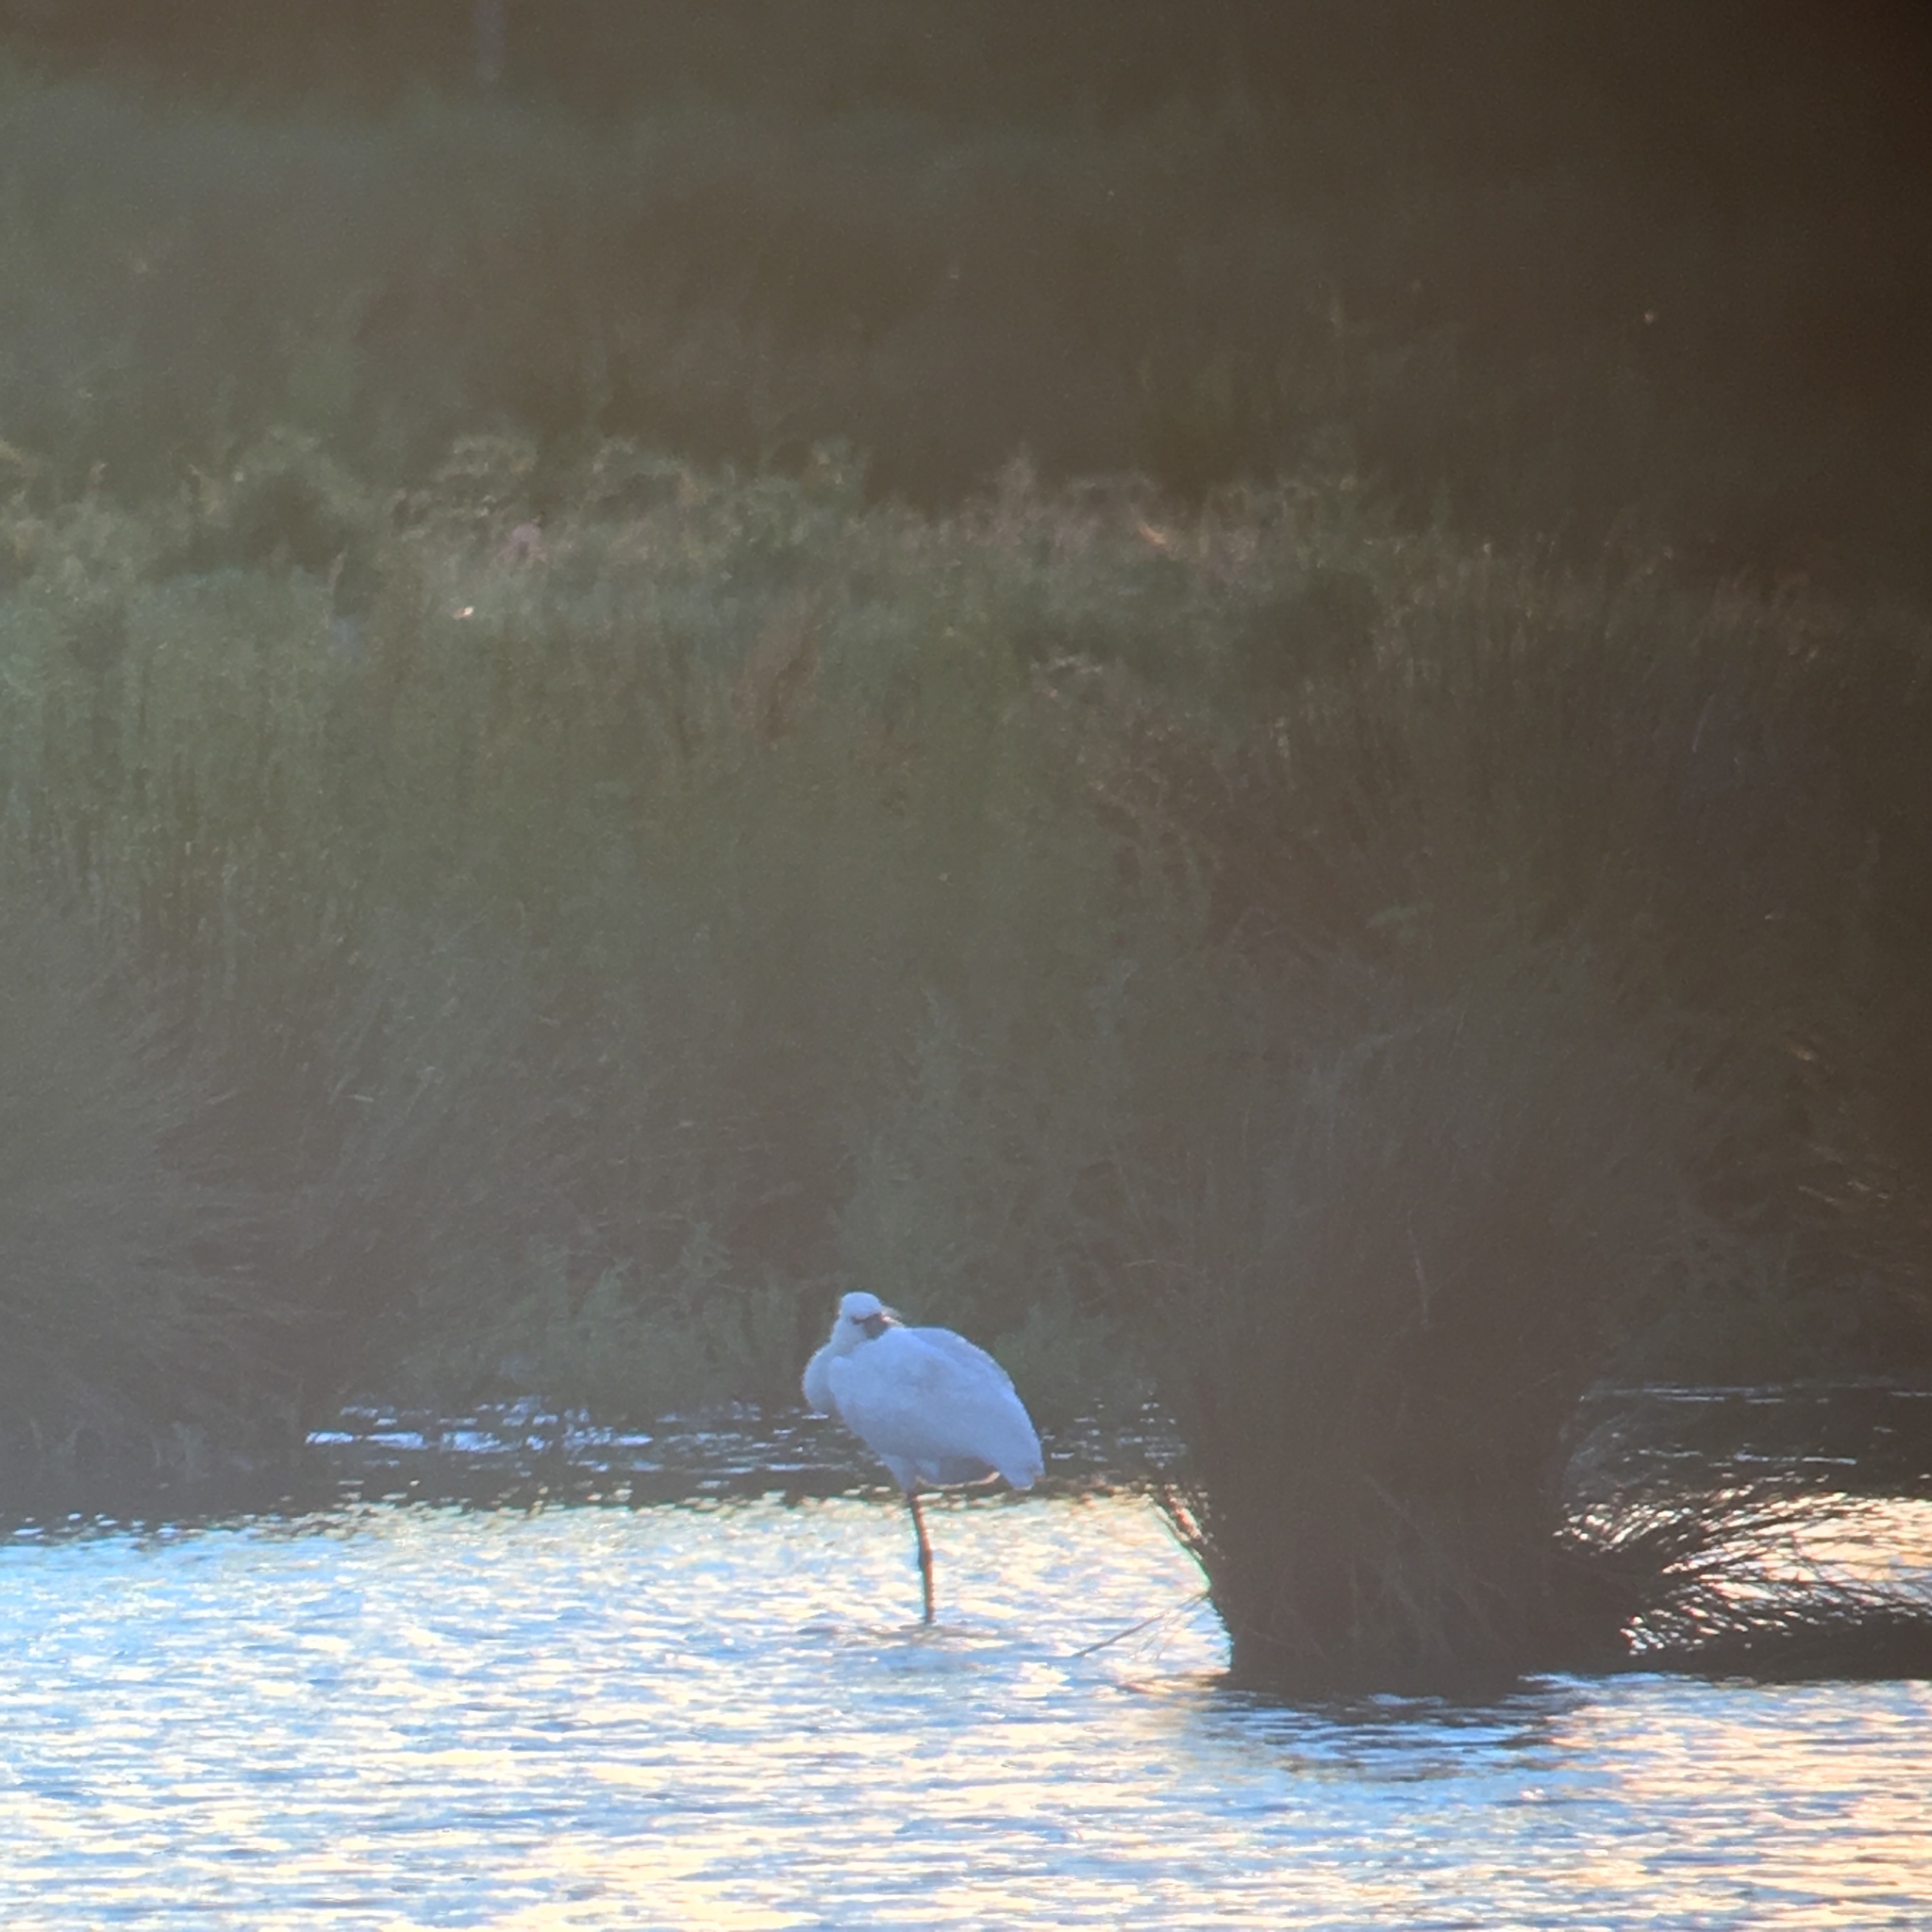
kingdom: Animalia
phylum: Chordata
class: Aves
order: Pelecaniformes
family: Threskiornithidae
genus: Platalea
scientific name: Platalea leucorodia
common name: Eurasian spoonbill
